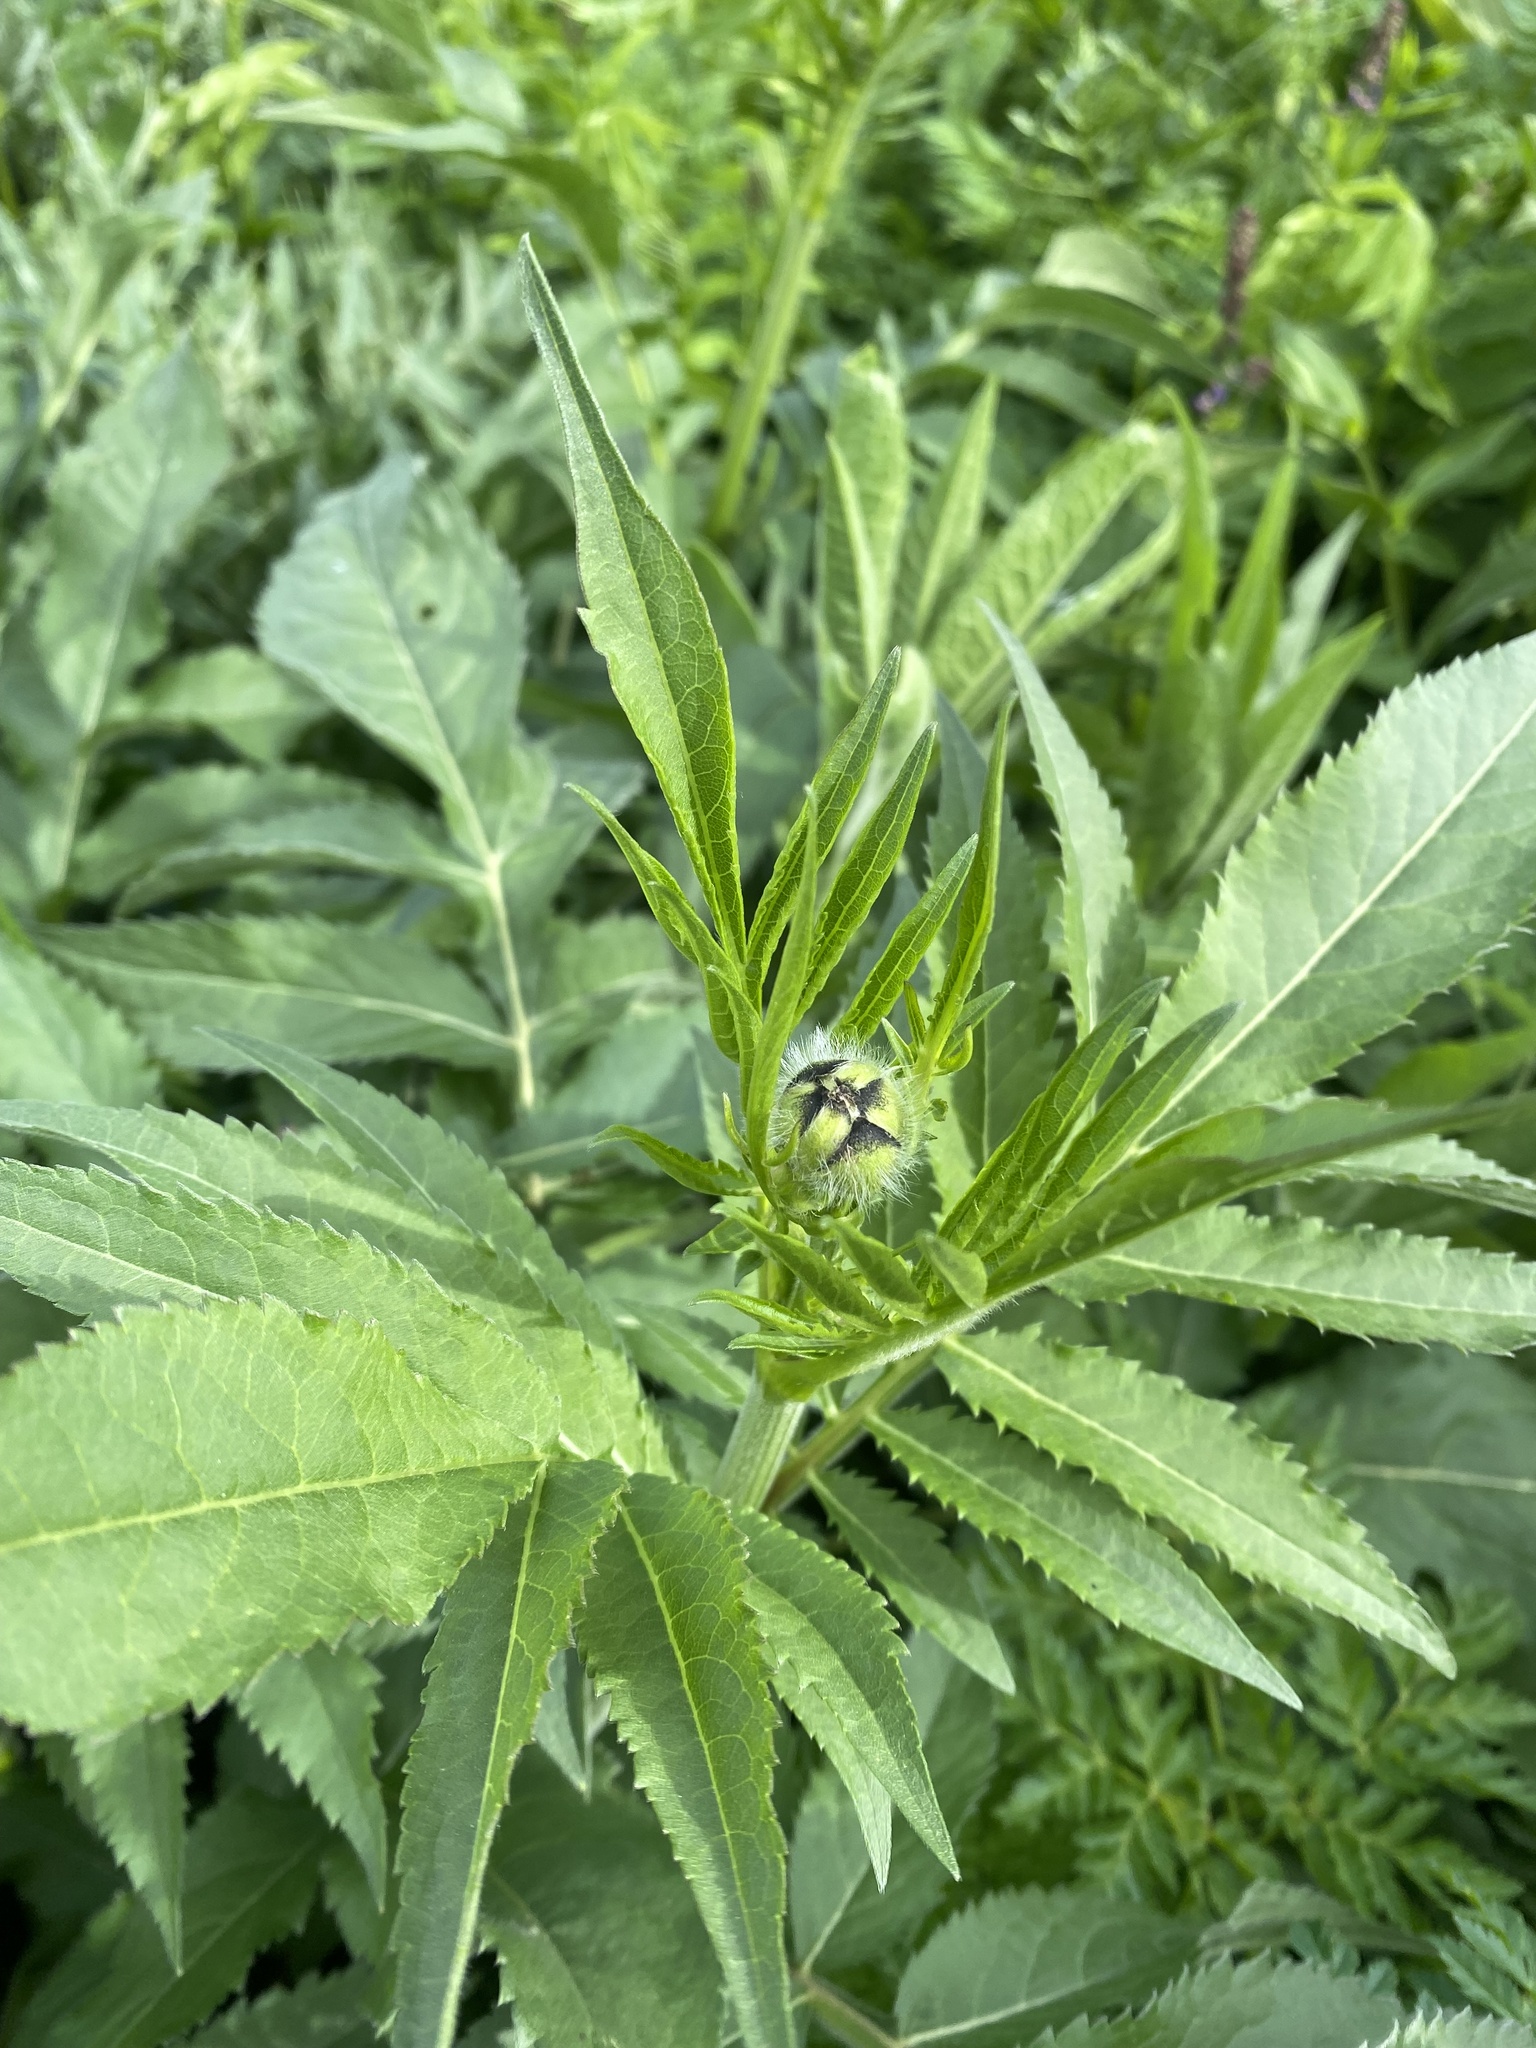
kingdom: Plantae
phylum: Tracheophyta
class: Magnoliopsida
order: Dipsacales
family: Caprifoliaceae
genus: Cephalaria
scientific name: Cephalaria gigantea
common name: Tatarian cephalaria
